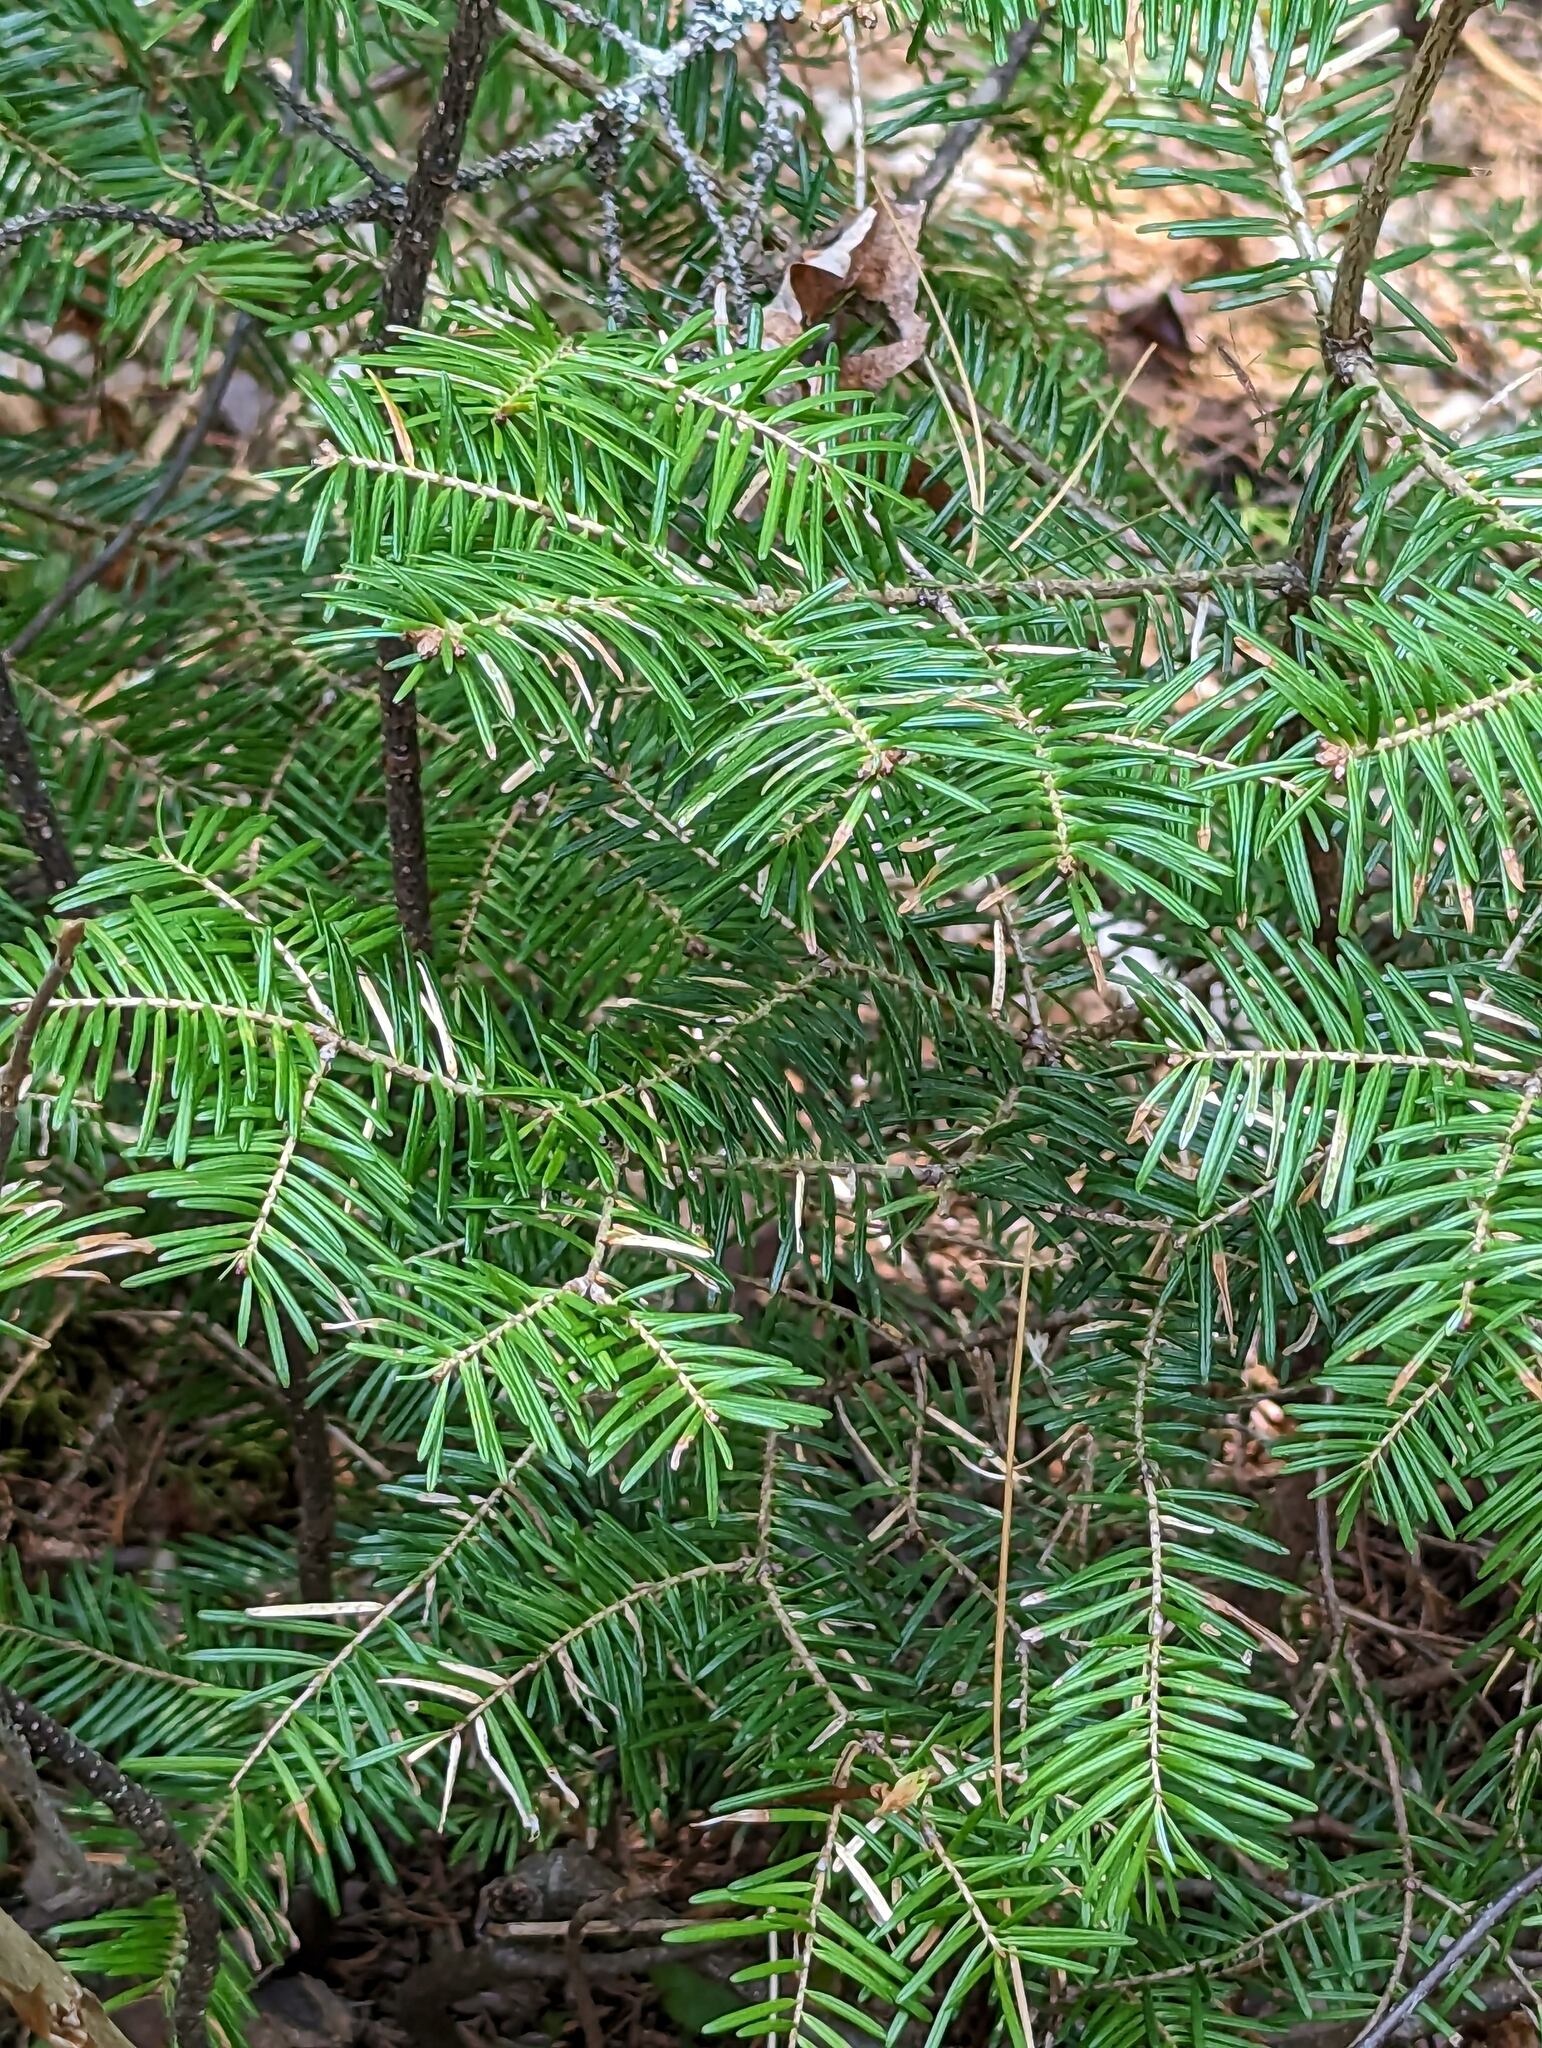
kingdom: Plantae
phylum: Tracheophyta
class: Pinopsida
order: Pinales
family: Pinaceae
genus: Abies
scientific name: Abies balsamea
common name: Balsam fir
